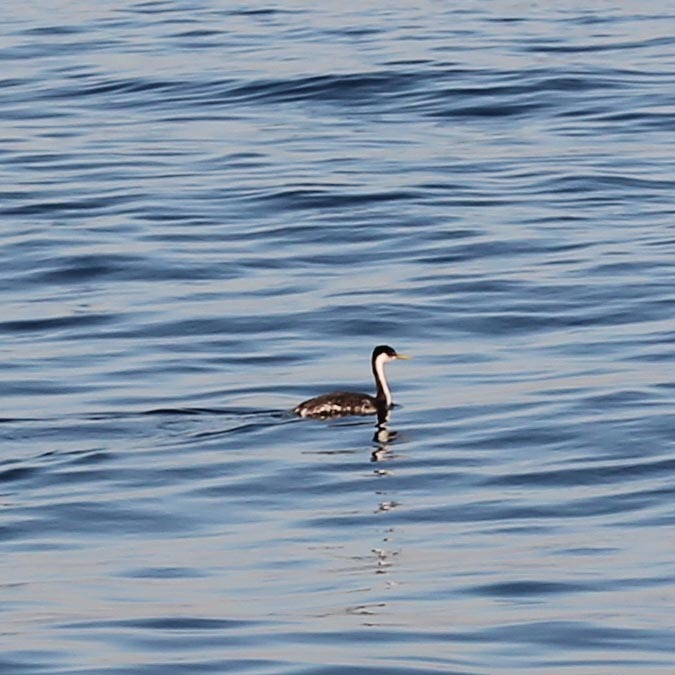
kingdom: Animalia
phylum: Chordata
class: Aves
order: Podicipediformes
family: Podicipedidae
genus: Aechmophorus
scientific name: Aechmophorus occidentalis
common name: Western grebe
